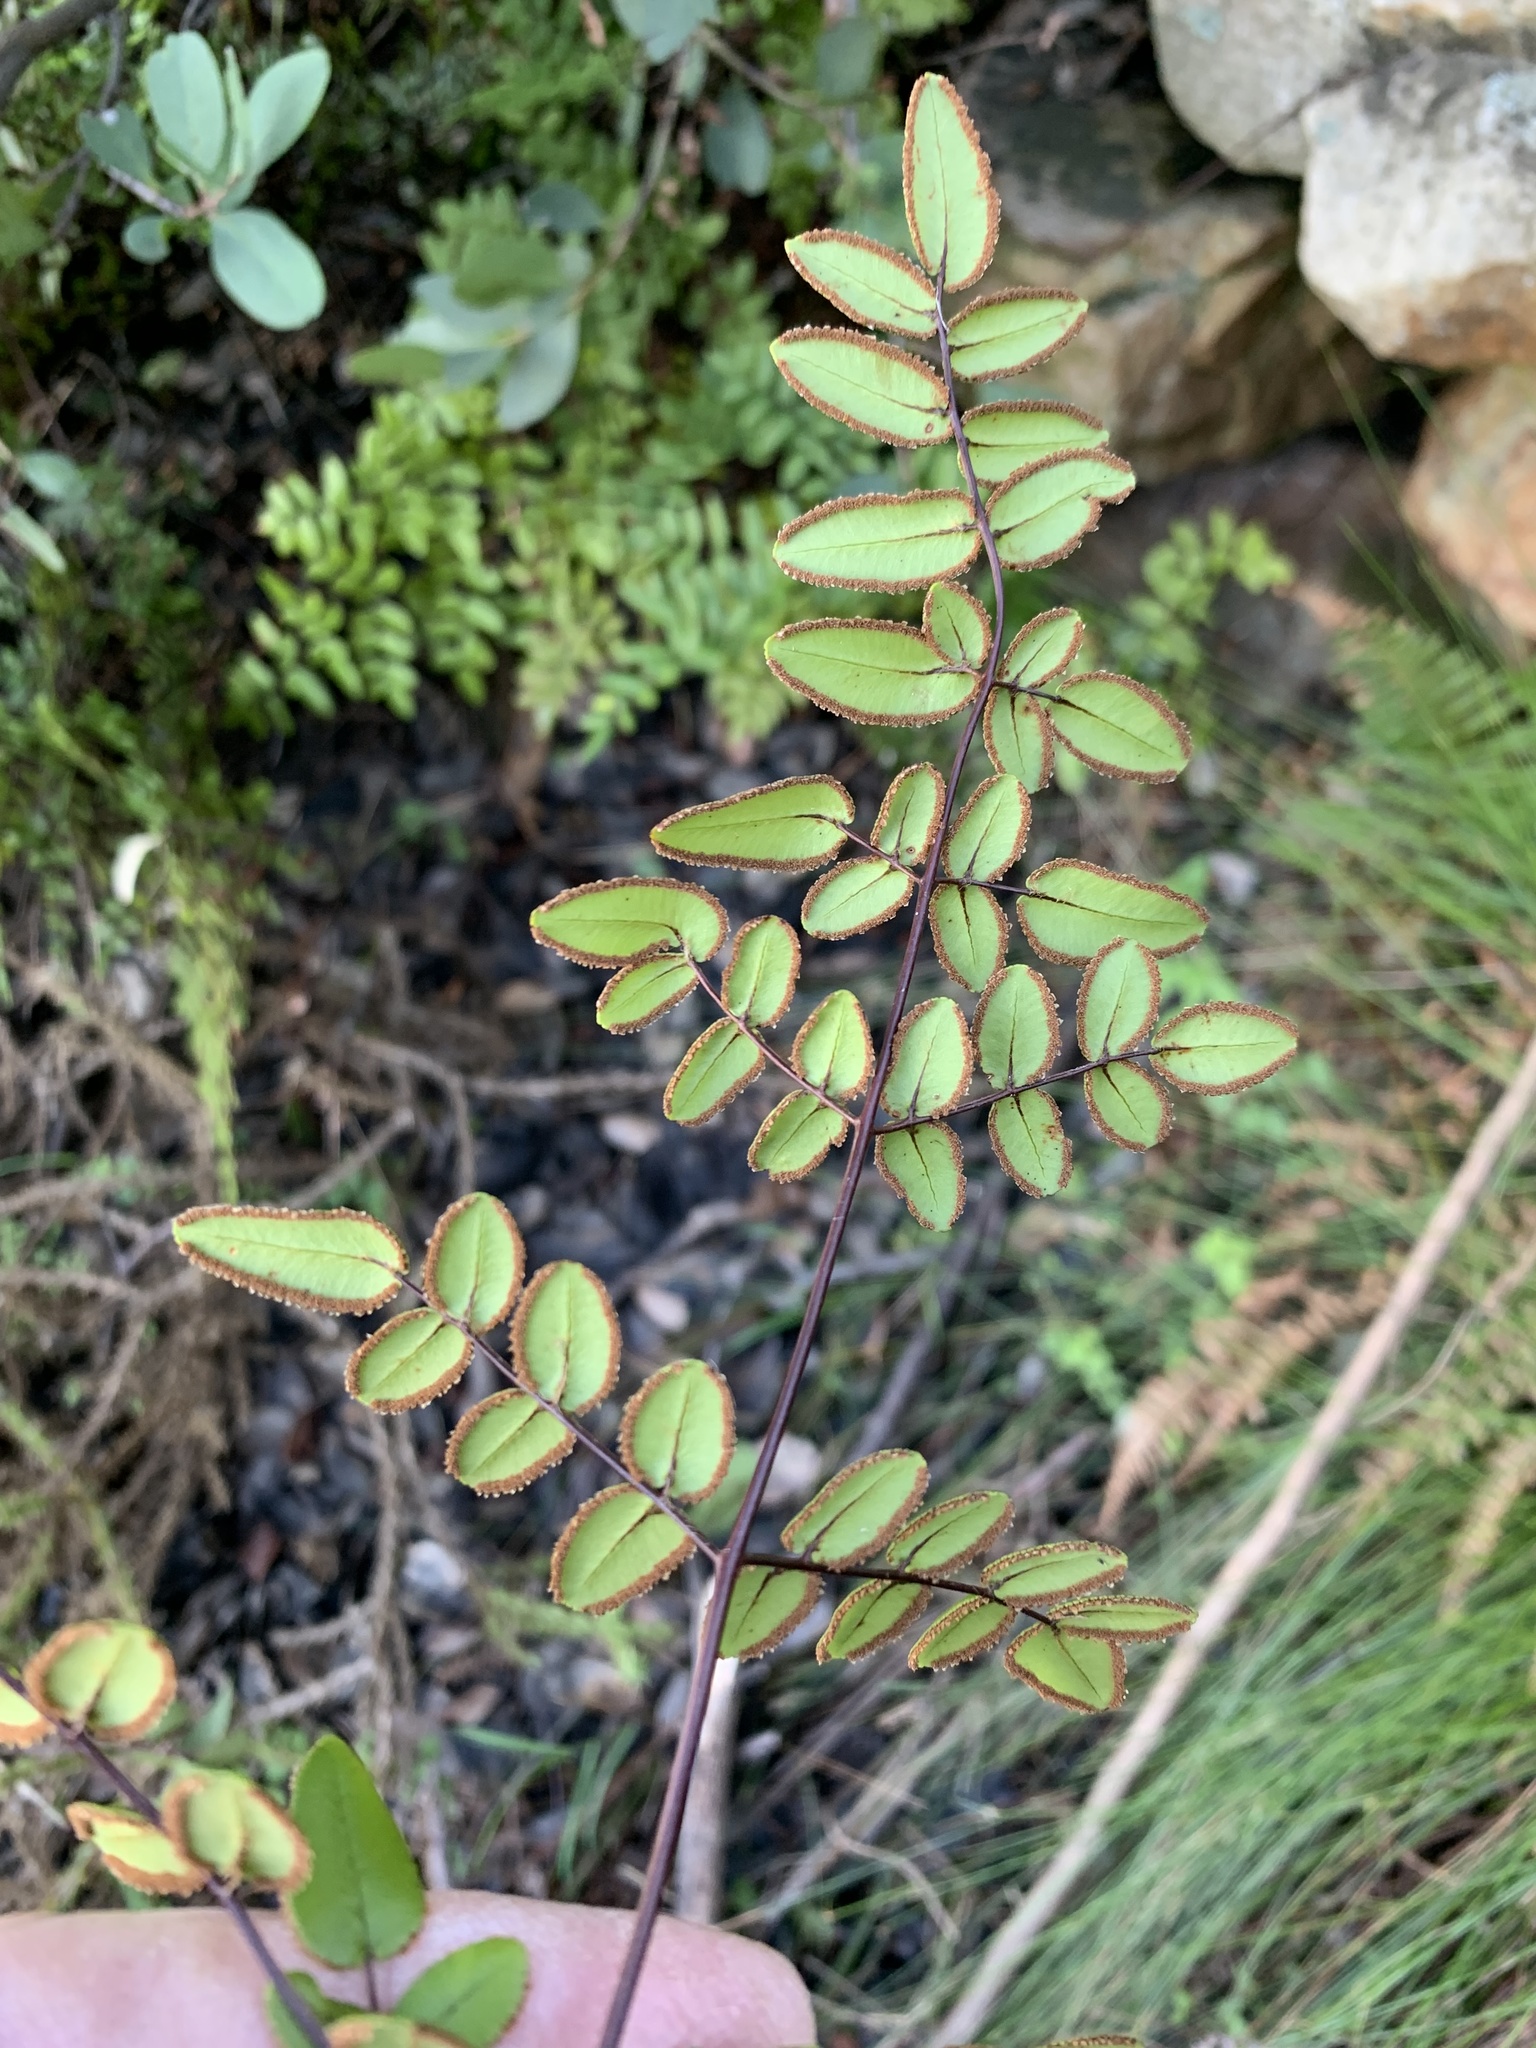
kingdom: Plantae
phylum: Tracheophyta
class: Polypodiopsida
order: Polypodiales
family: Pteridaceae
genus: Pellaea
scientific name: Pellaea pteroides
